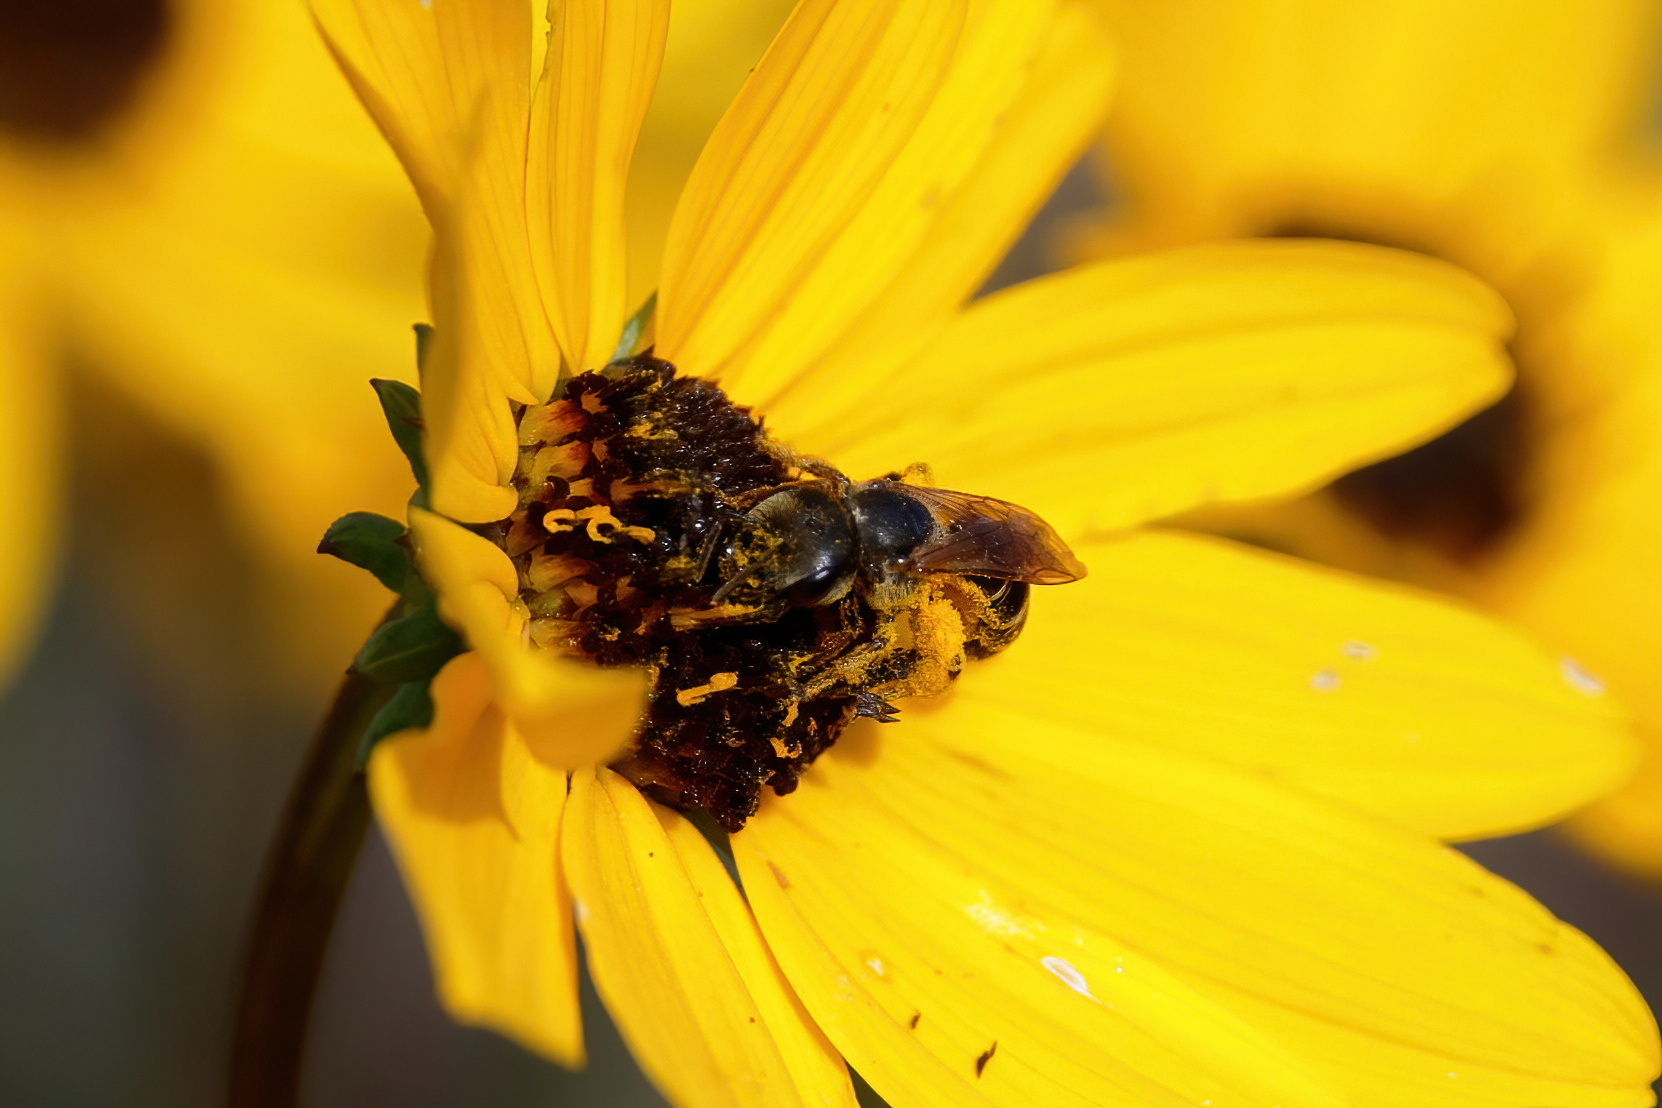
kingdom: Animalia
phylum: Arthropoda
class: Insecta
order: Hymenoptera
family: Halictidae
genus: Halictus
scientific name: Halictus poeyi
